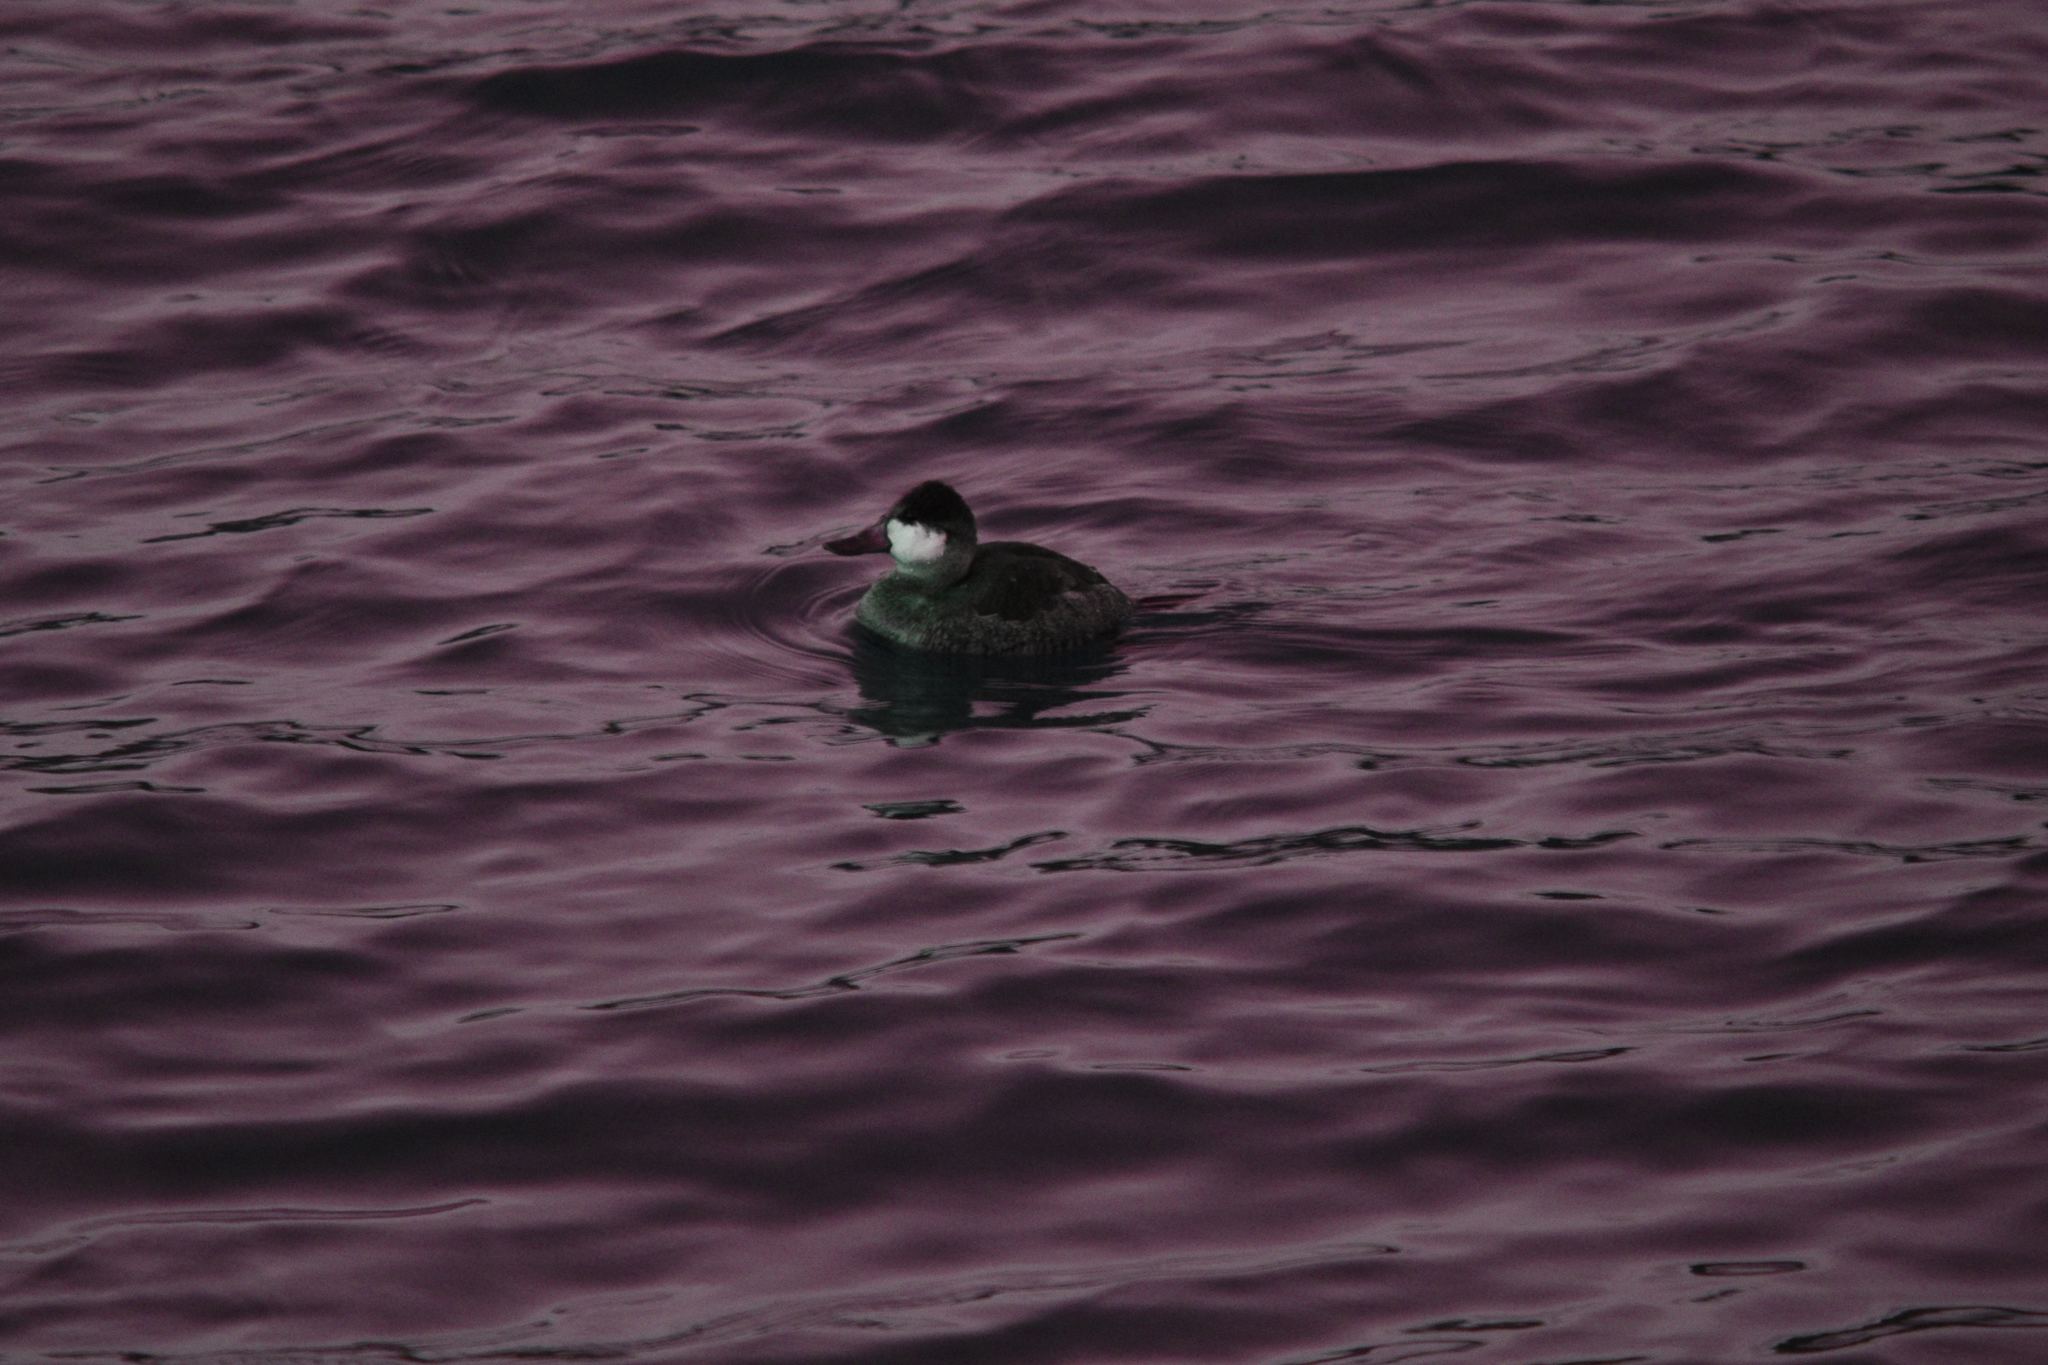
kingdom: Animalia
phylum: Chordata
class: Aves
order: Anseriformes
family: Anatidae
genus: Oxyura
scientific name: Oxyura jamaicensis
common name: Ruddy duck
